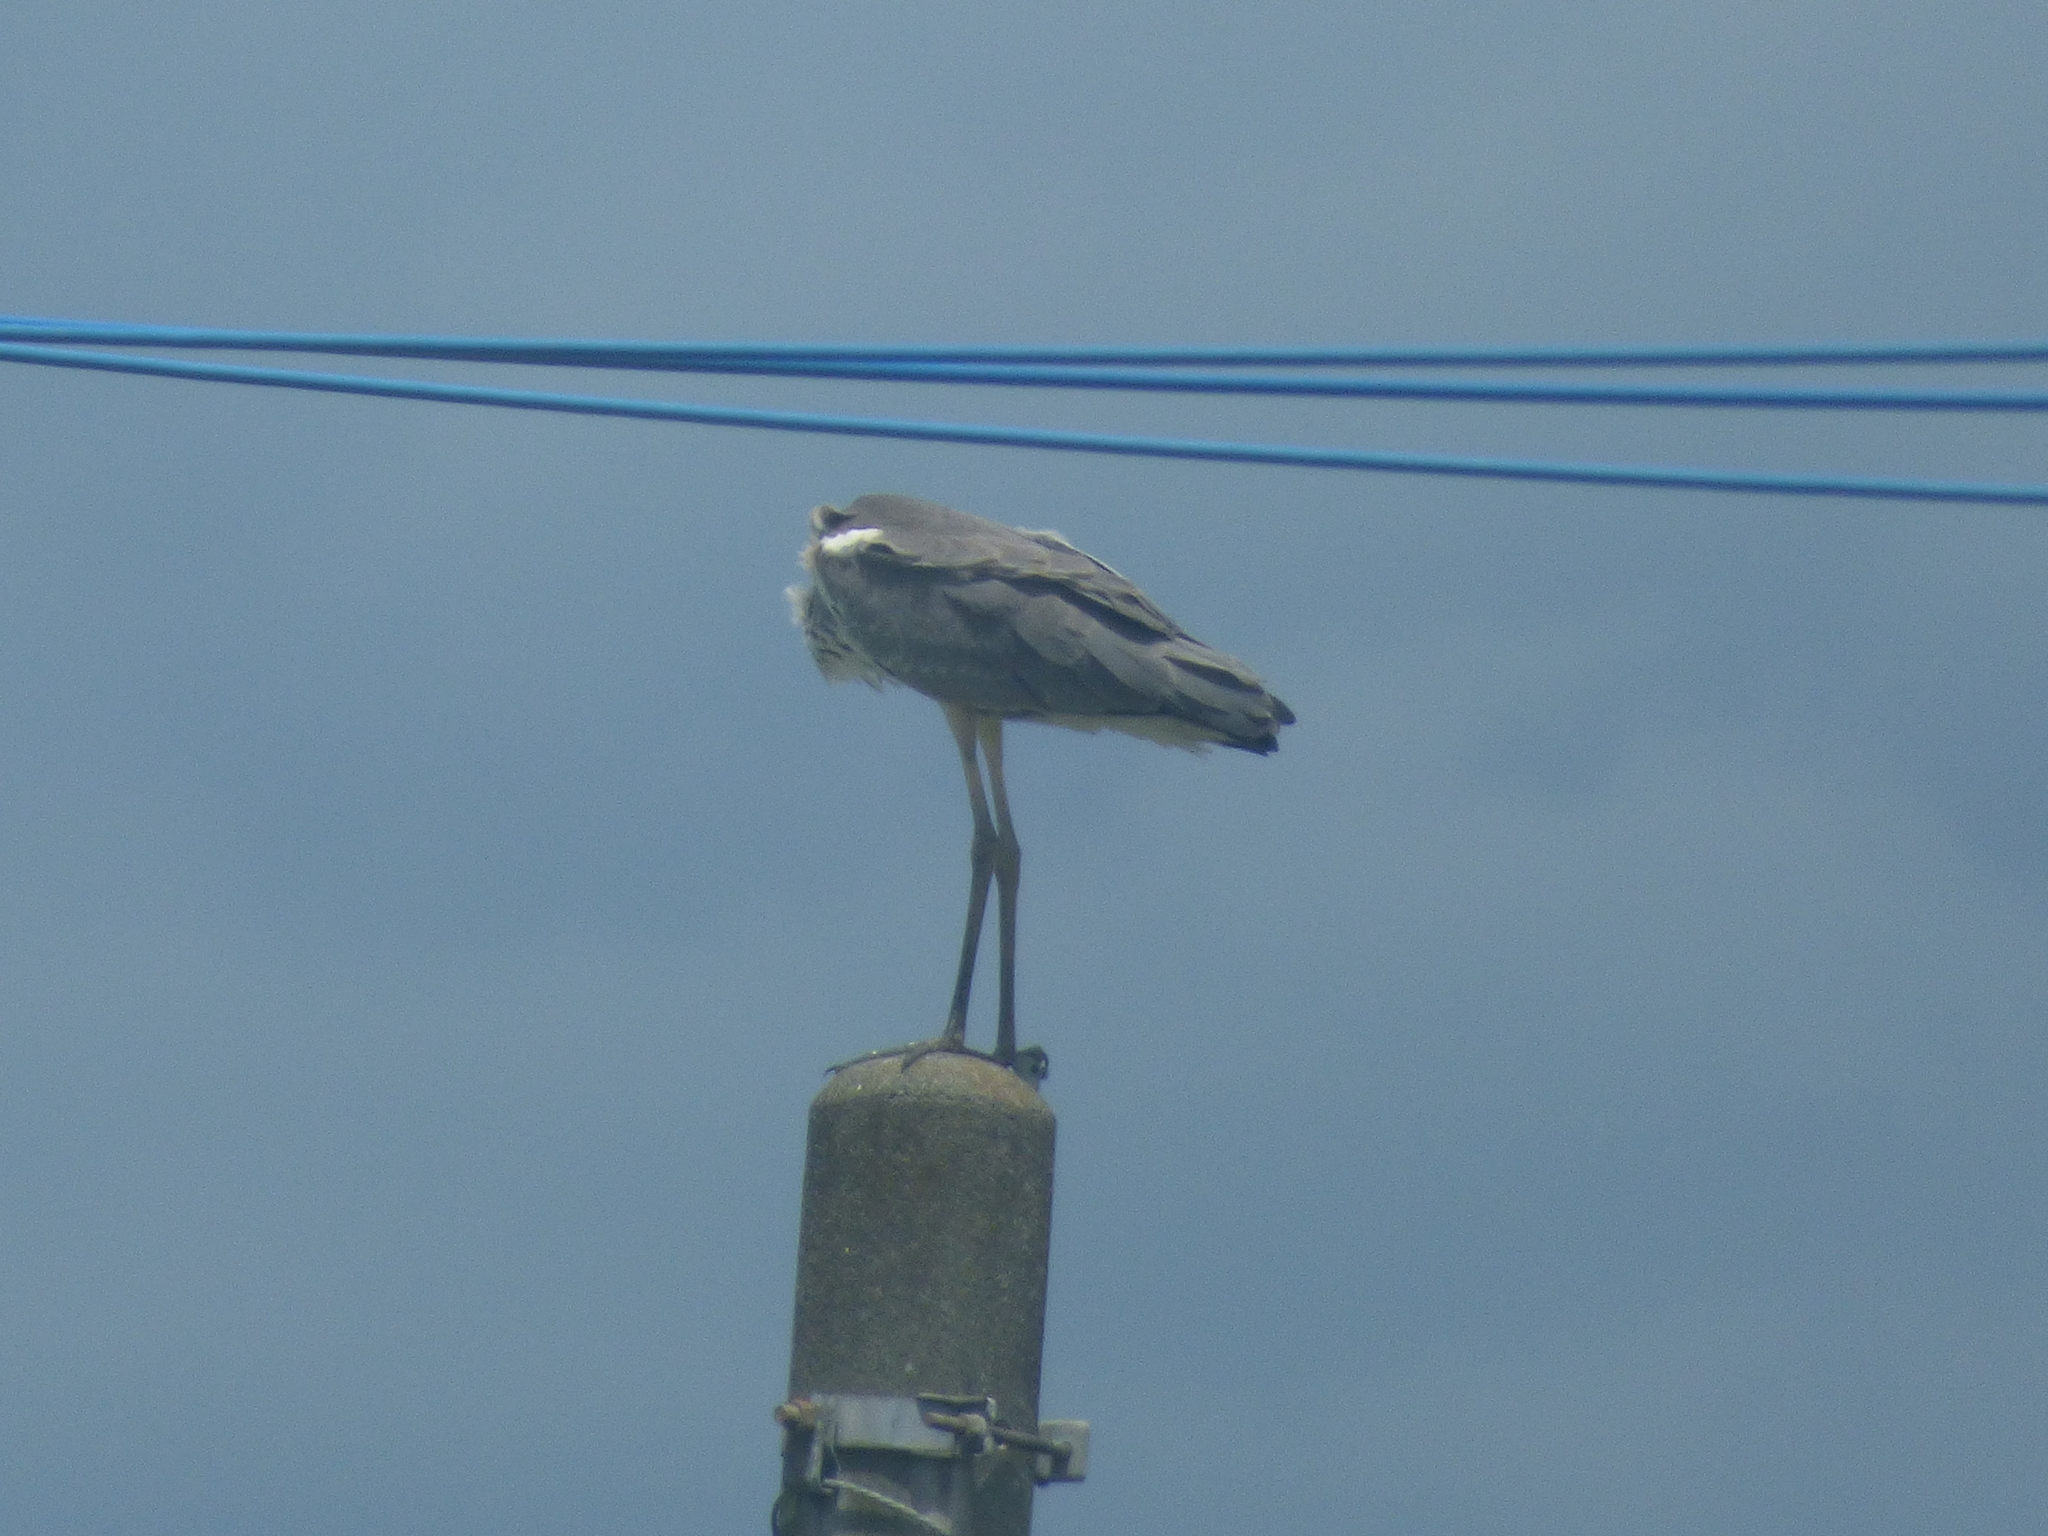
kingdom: Animalia
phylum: Chordata
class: Aves
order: Pelecaniformes
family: Ardeidae
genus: Ardea
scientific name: Ardea cinerea
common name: Grey heron
